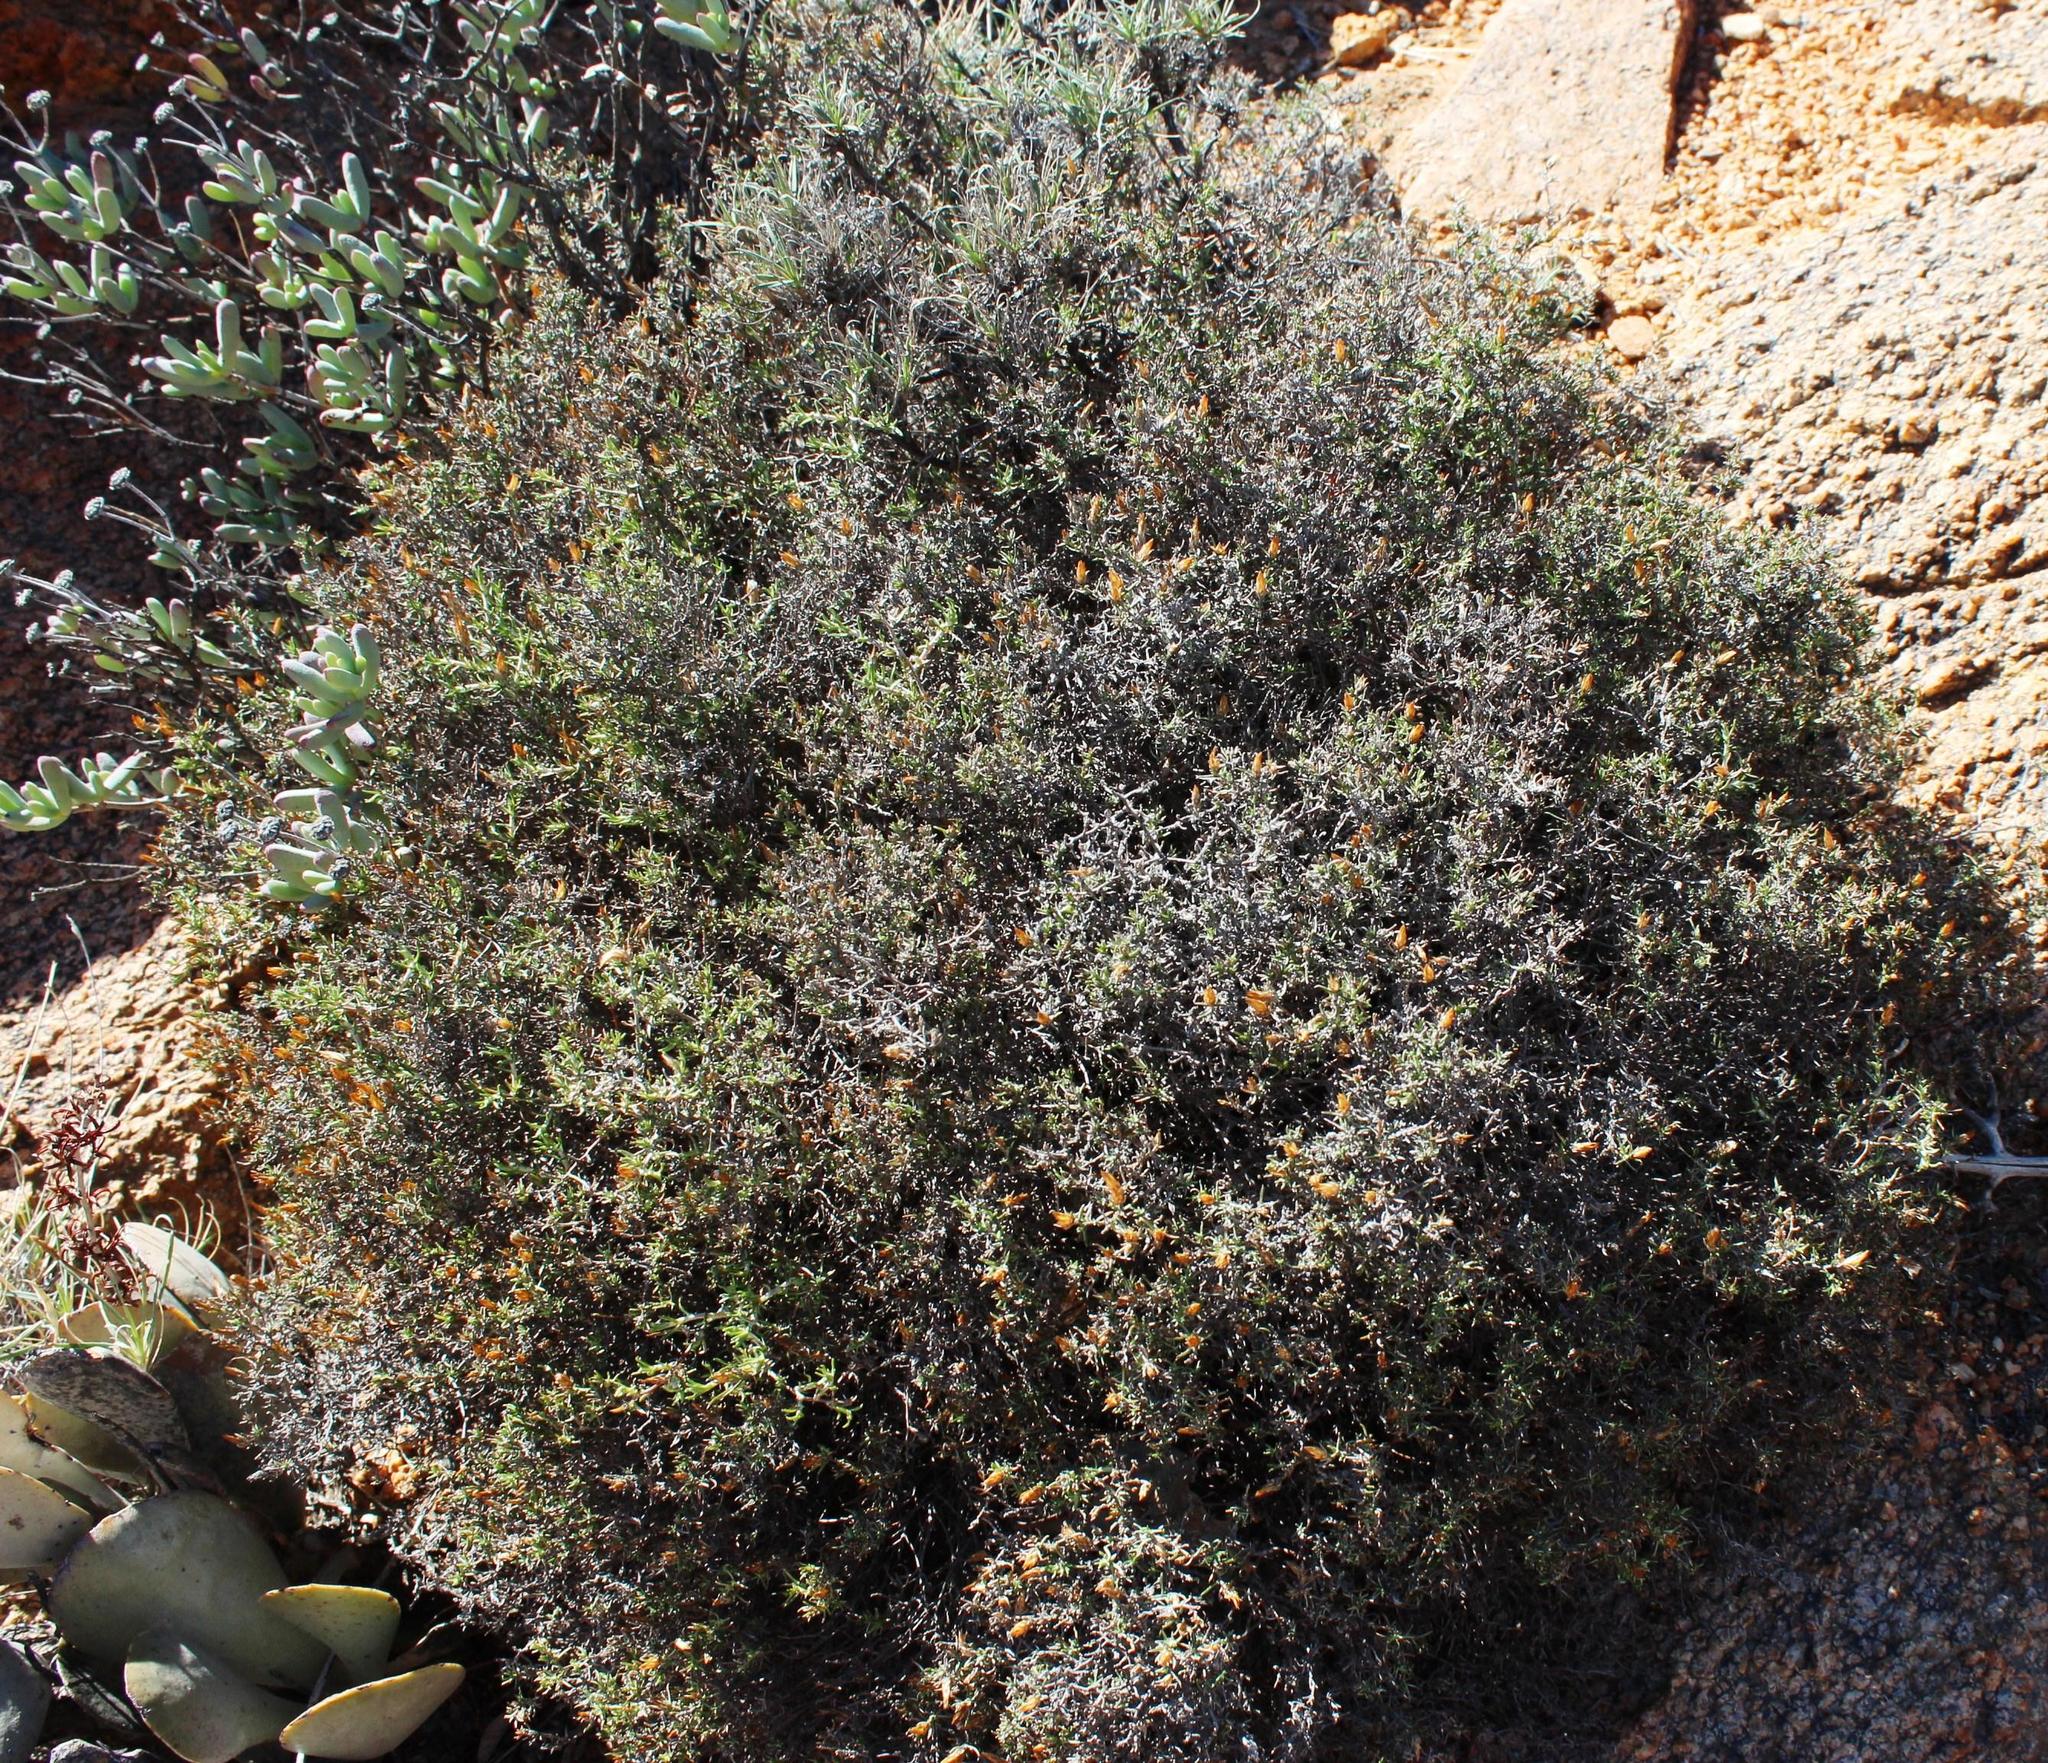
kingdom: Plantae
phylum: Tracheophyta
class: Magnoliopsida
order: Asterales
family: Asteraceae
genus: Amphiglossa
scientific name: Amphiglossa tomentosa
